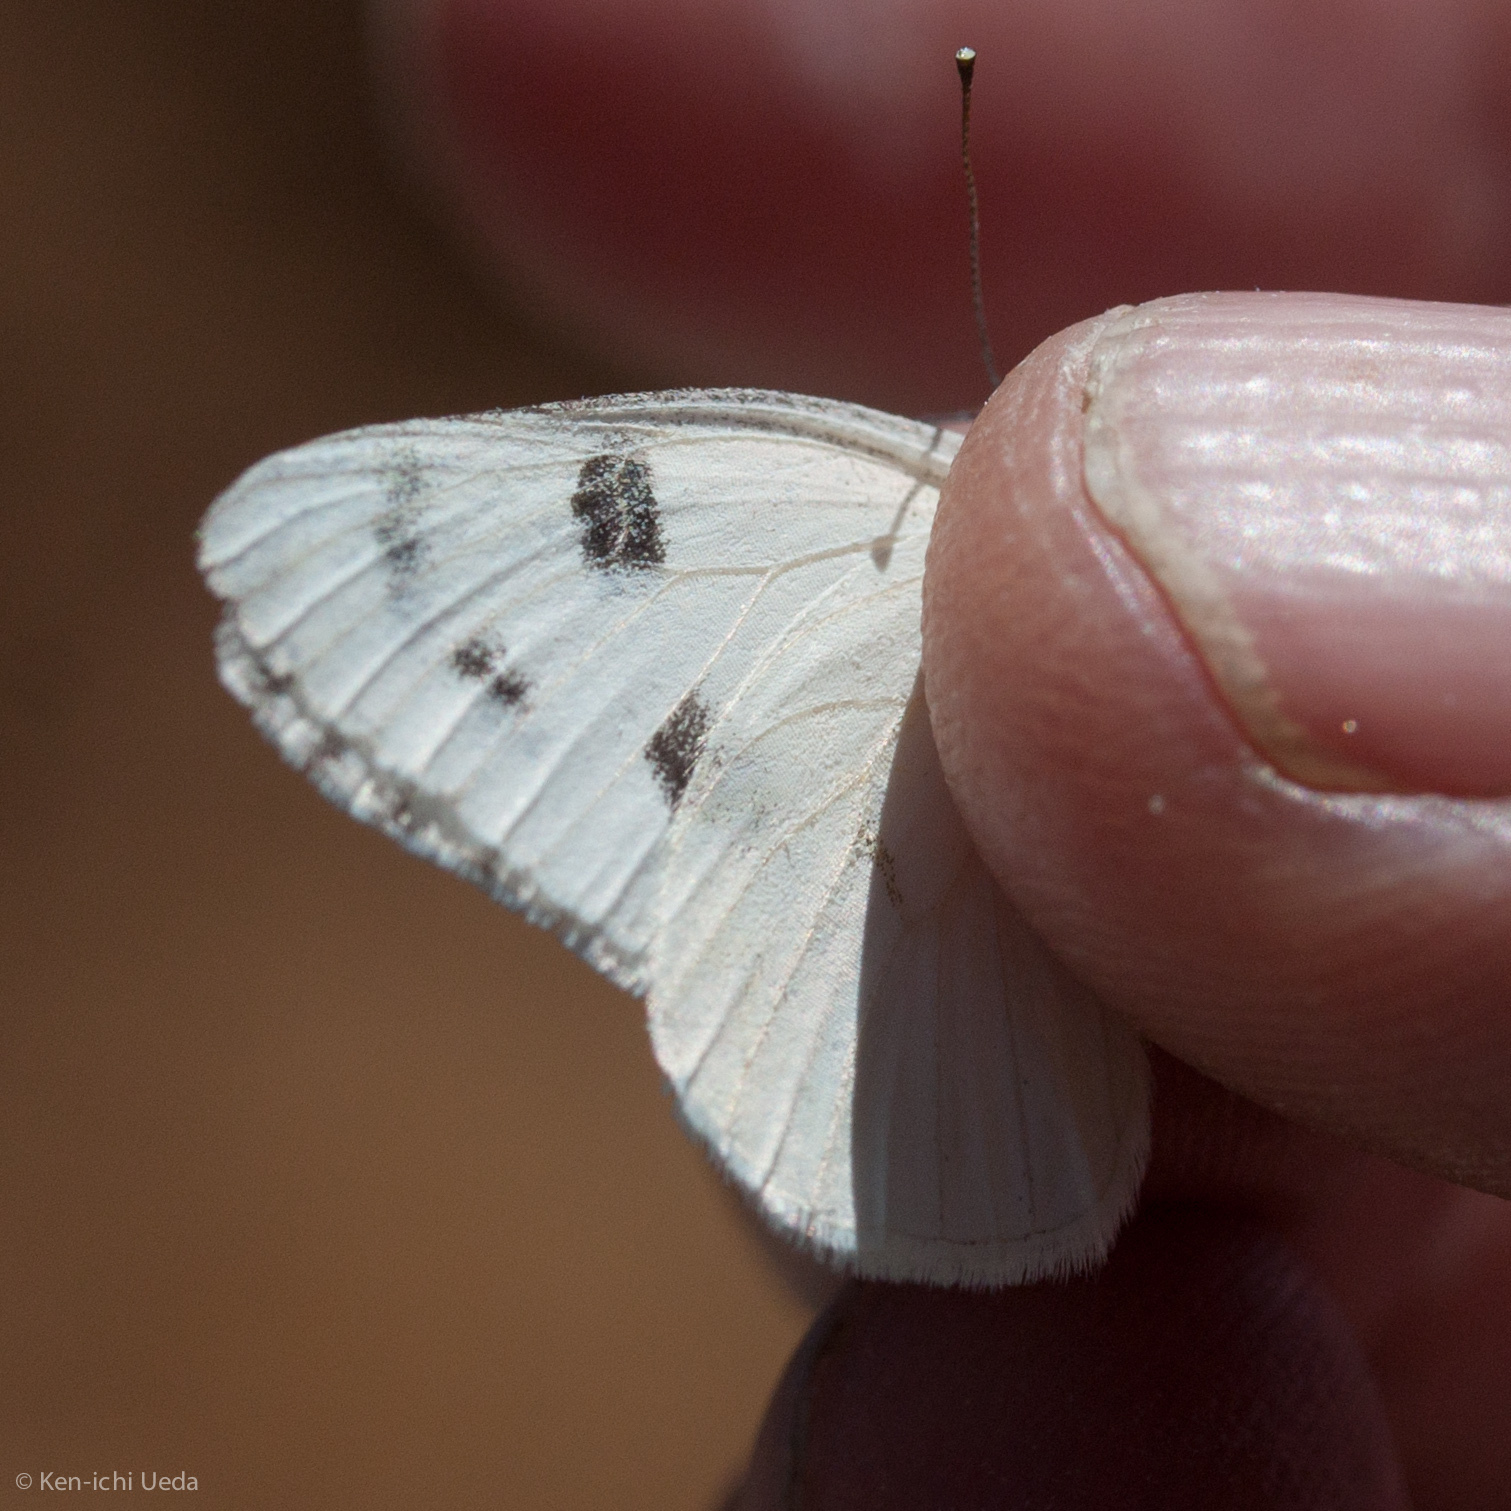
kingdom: Animalia
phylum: Arthropoda
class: Insecta
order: Lepidoptera
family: Pieridae
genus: Pontia
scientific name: Pontia protodice
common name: Checkered white
